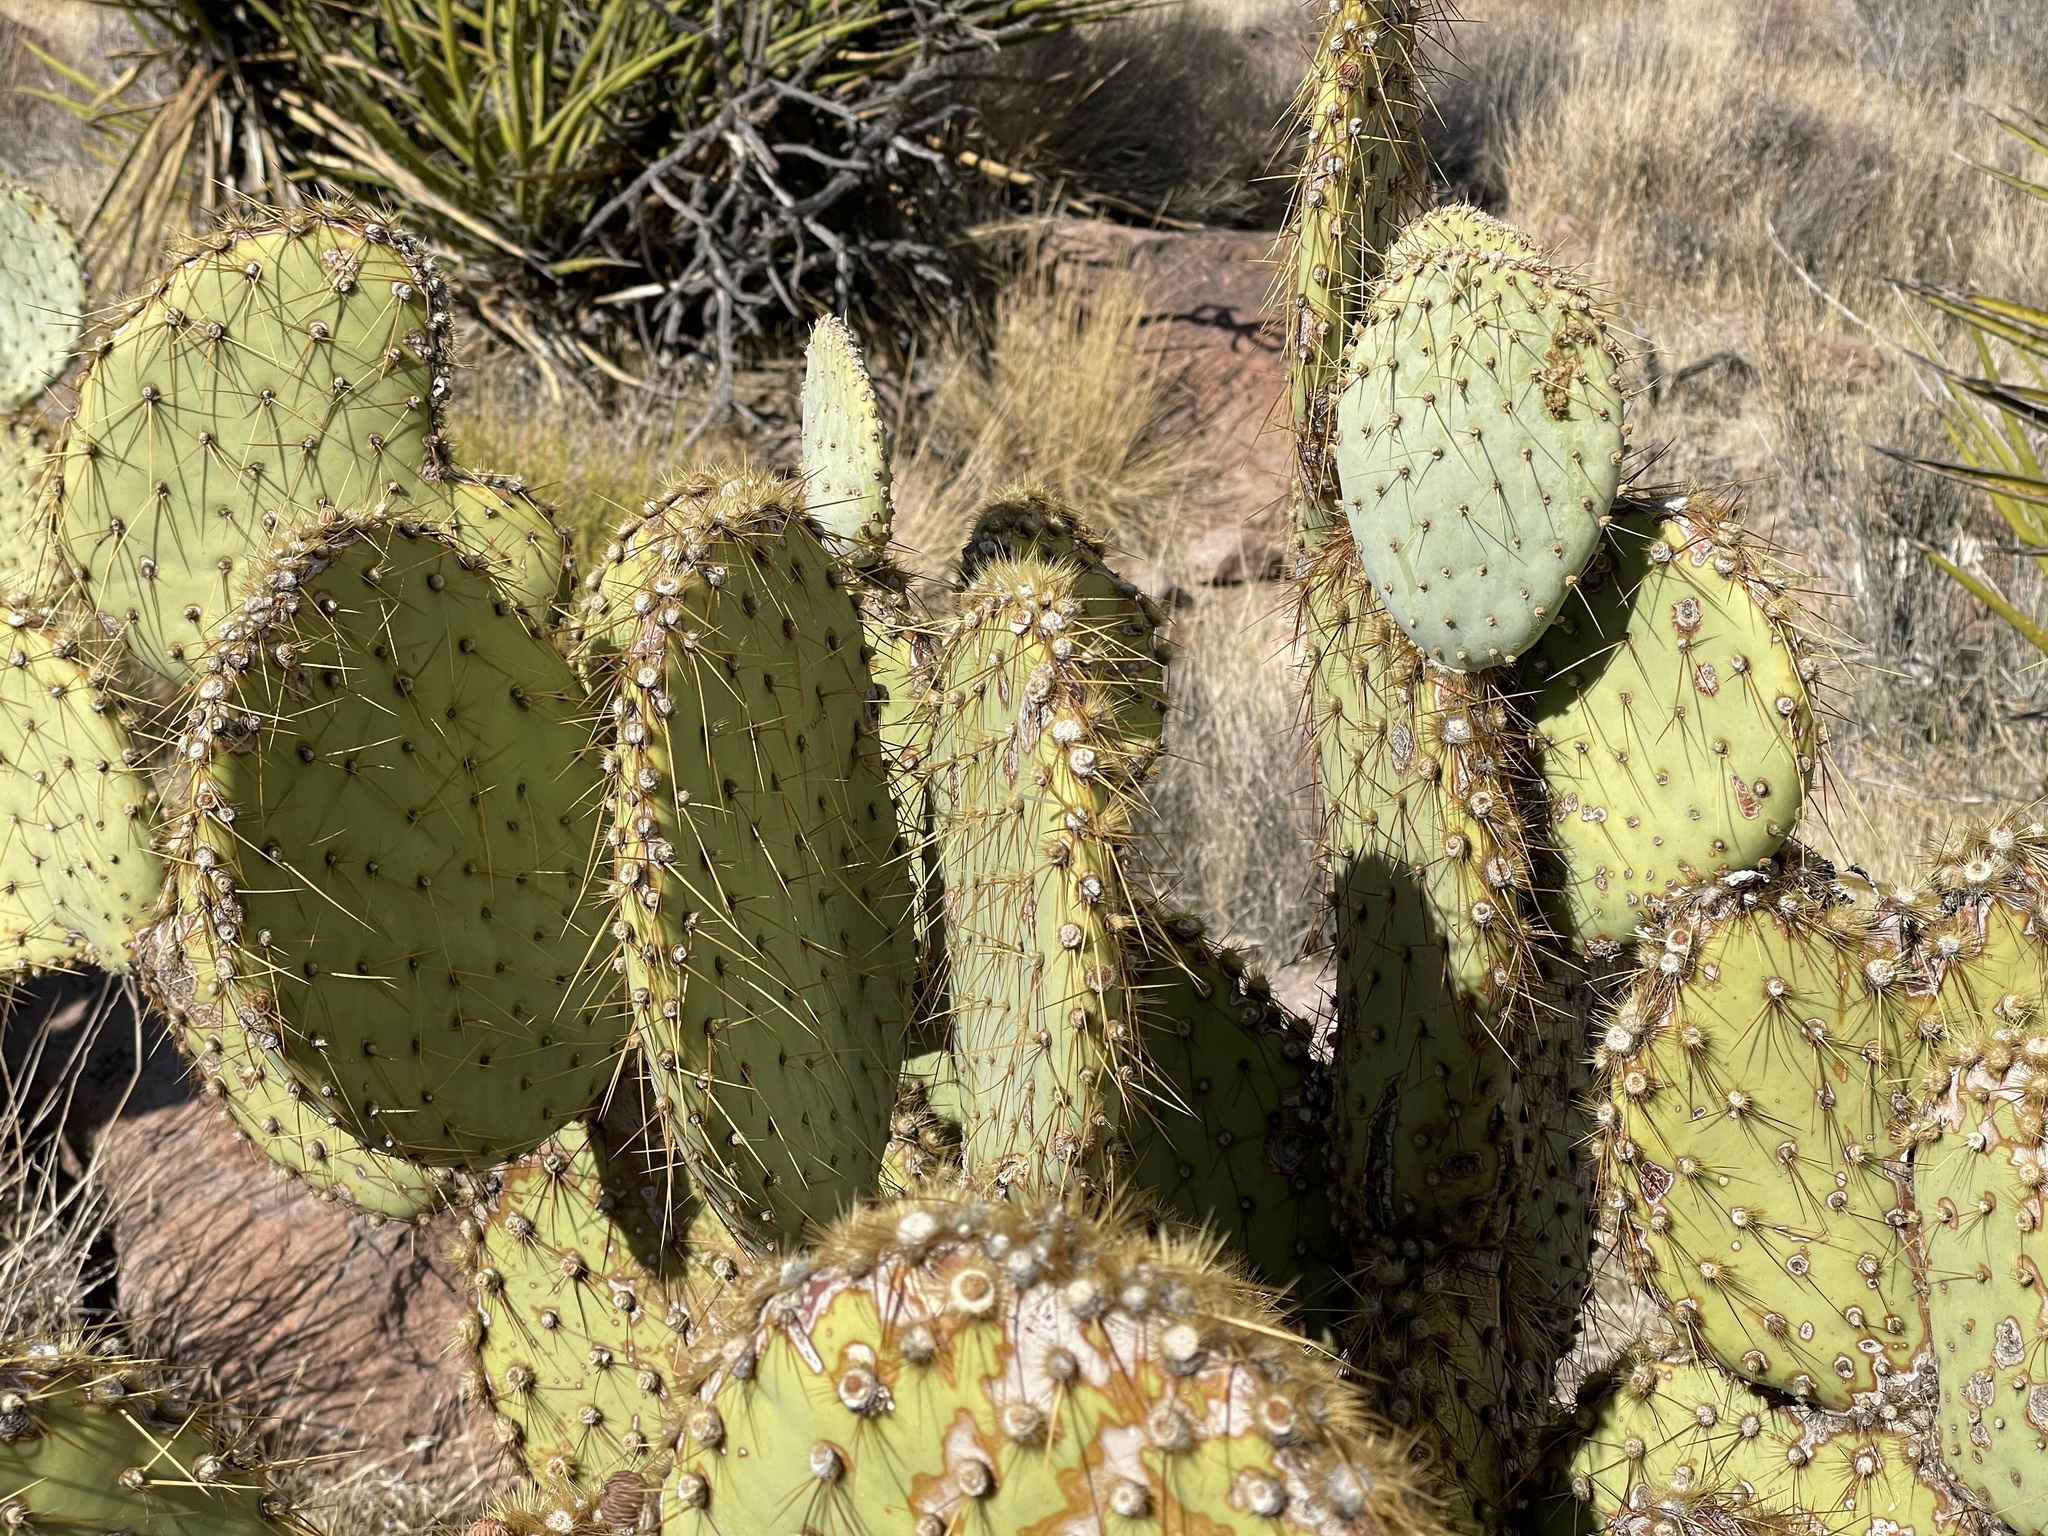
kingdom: Plantae
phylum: Tracheophyta
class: Magnoliopsida
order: Caryophyllales
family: Cactaceae
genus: Opuntia
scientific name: Opuntia chlorotica
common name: Dollar-joint prickly-pear
